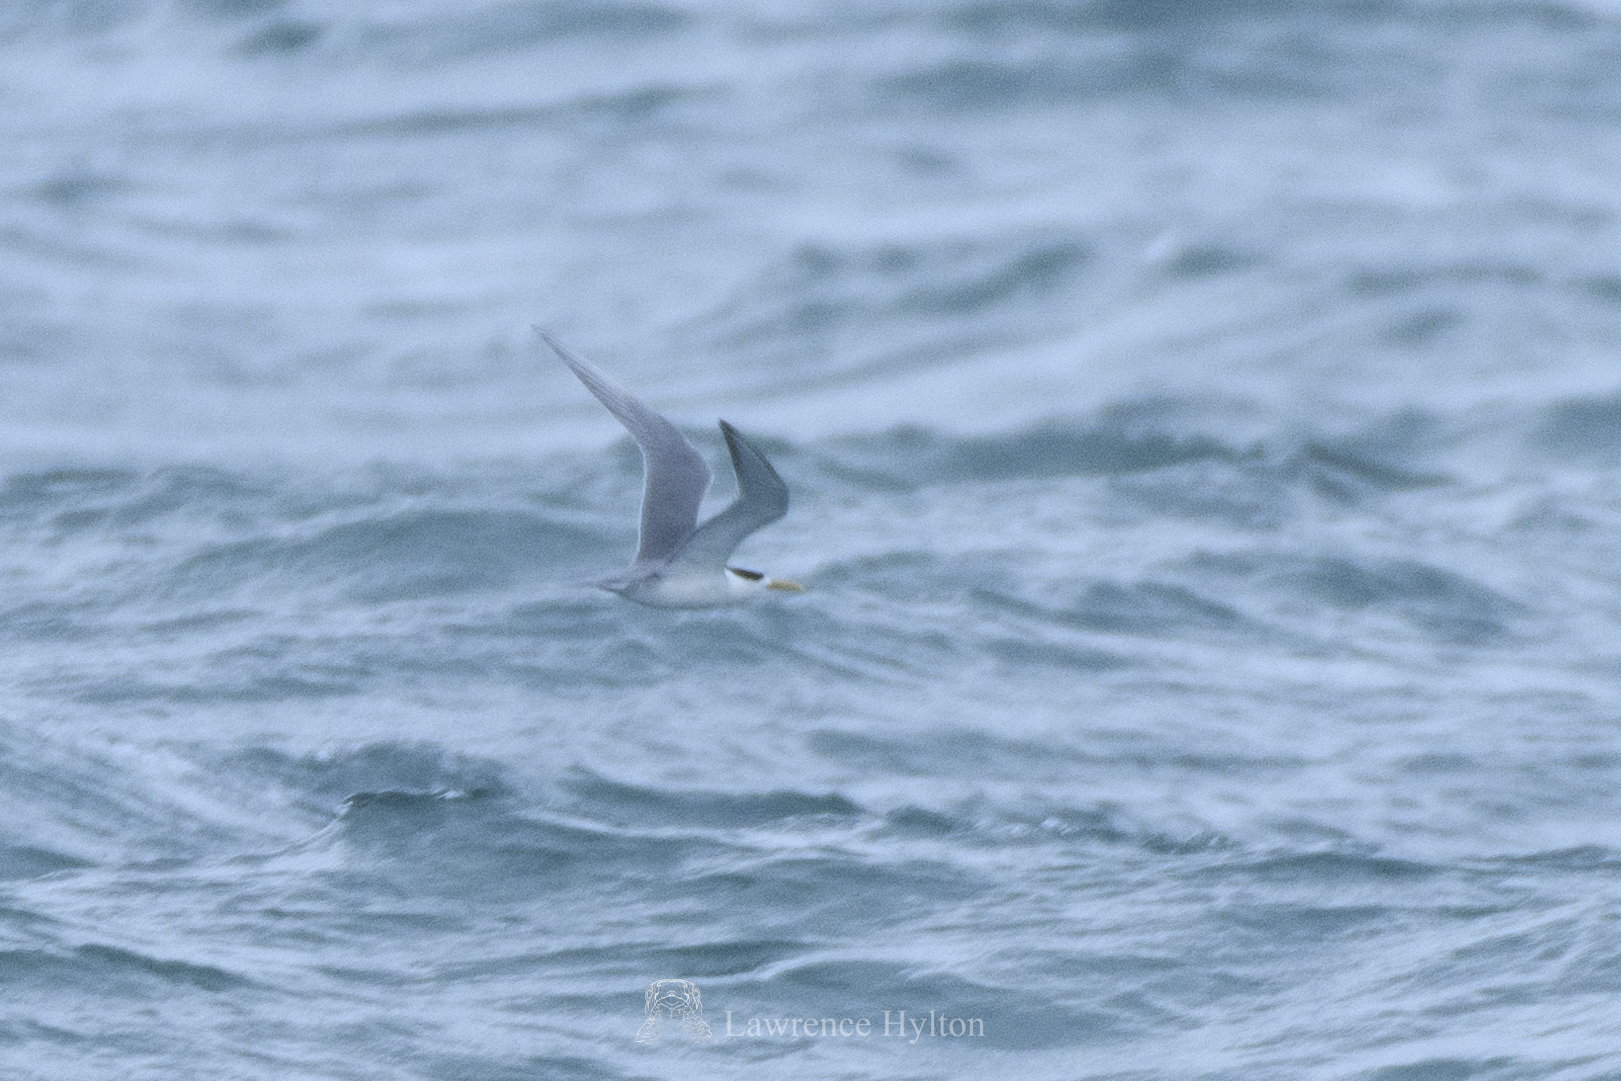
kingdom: Animalia
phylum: Chordata
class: Aves
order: Charadriiformes
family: Laridae
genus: Thalasseus
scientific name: Thalasseus bergii
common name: Greater crested tern
